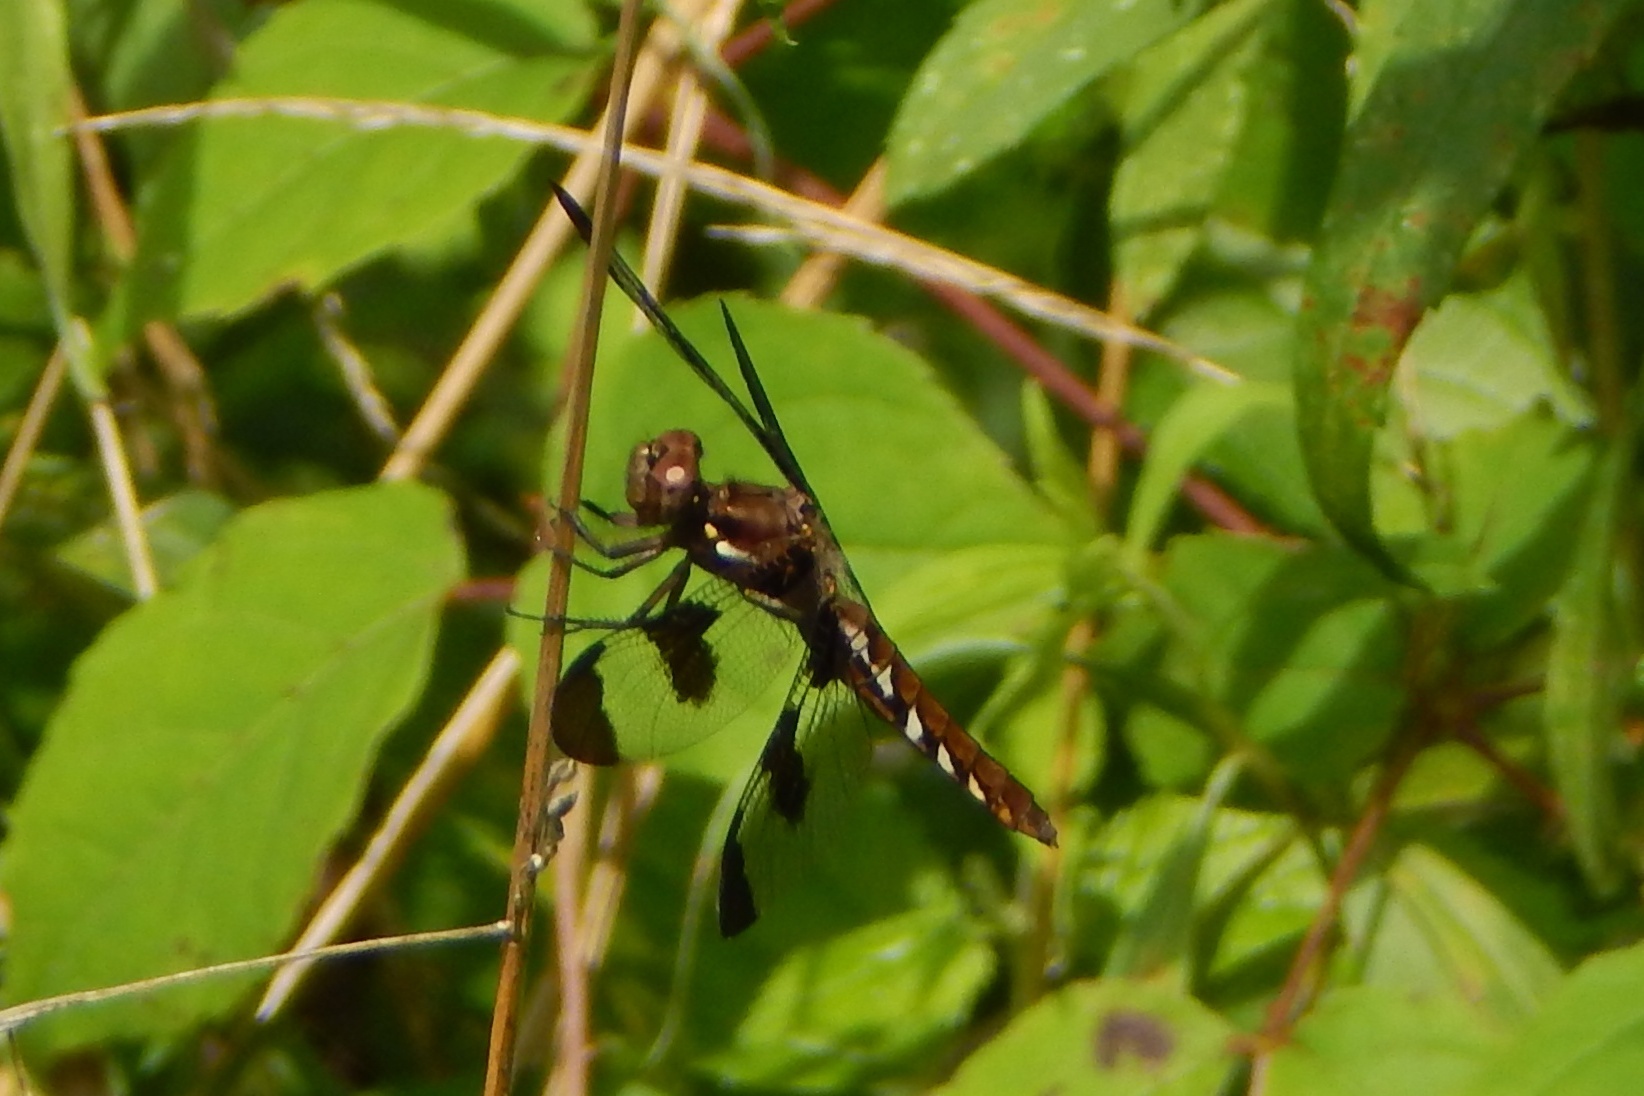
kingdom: Animalia
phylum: Arthropoda
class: Insecta
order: Odonata
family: Libellulidae
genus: Plathemis
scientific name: Plathemis lydia
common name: Common whitetail
